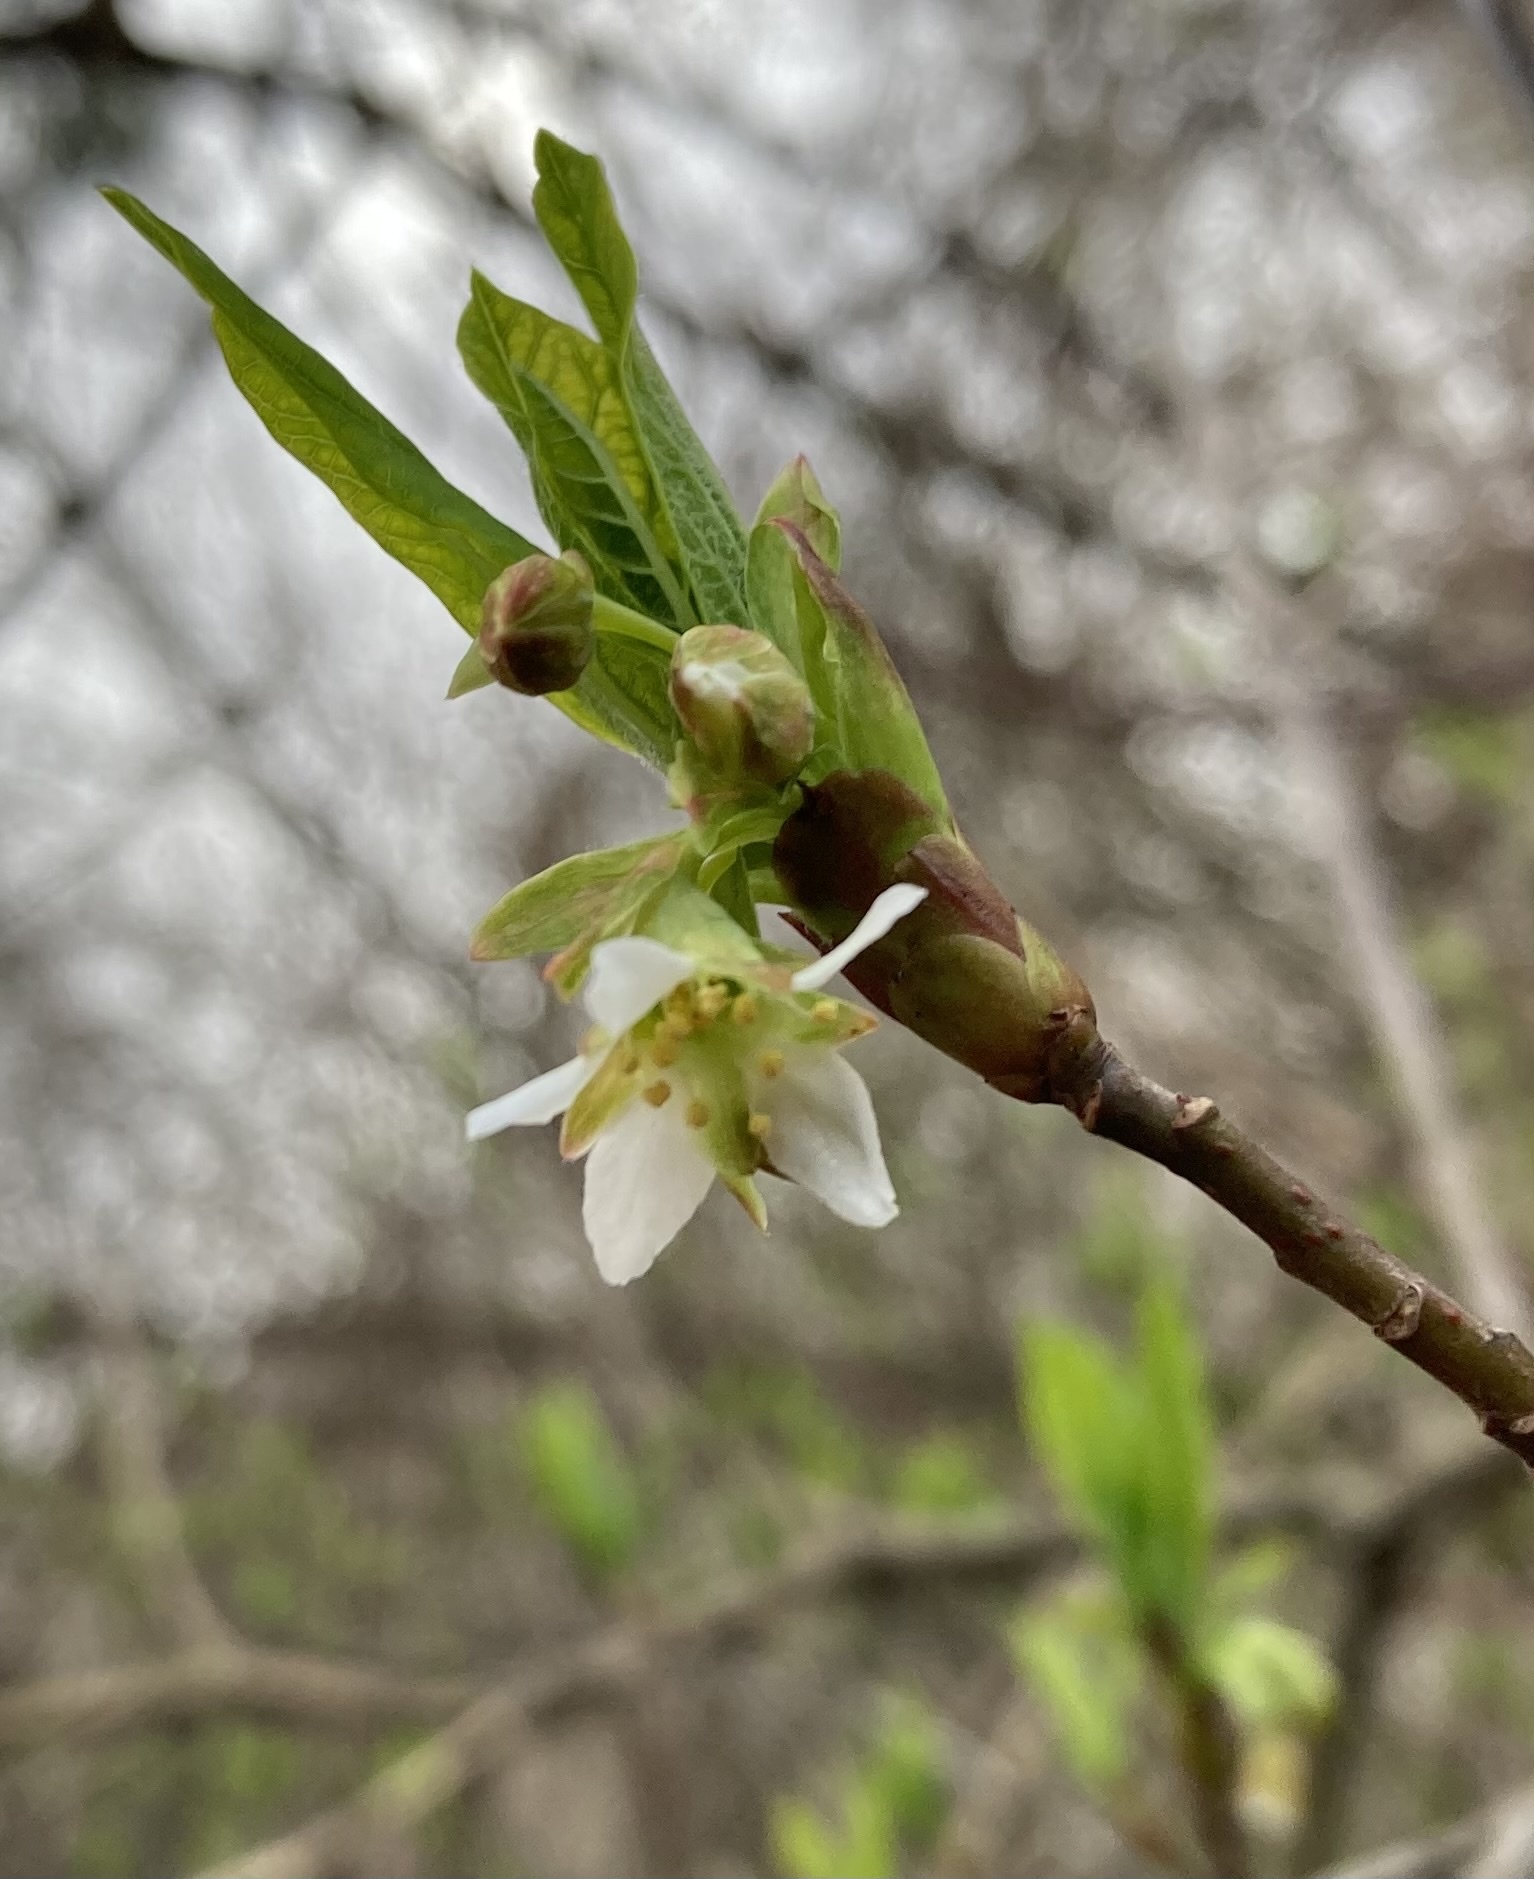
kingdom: Plantae
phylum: Tracheophyta
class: Magnoliopsida
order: Rosales
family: Rosaceae
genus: Oemleria
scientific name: Oemleria cerasiformis
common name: Osoberry
